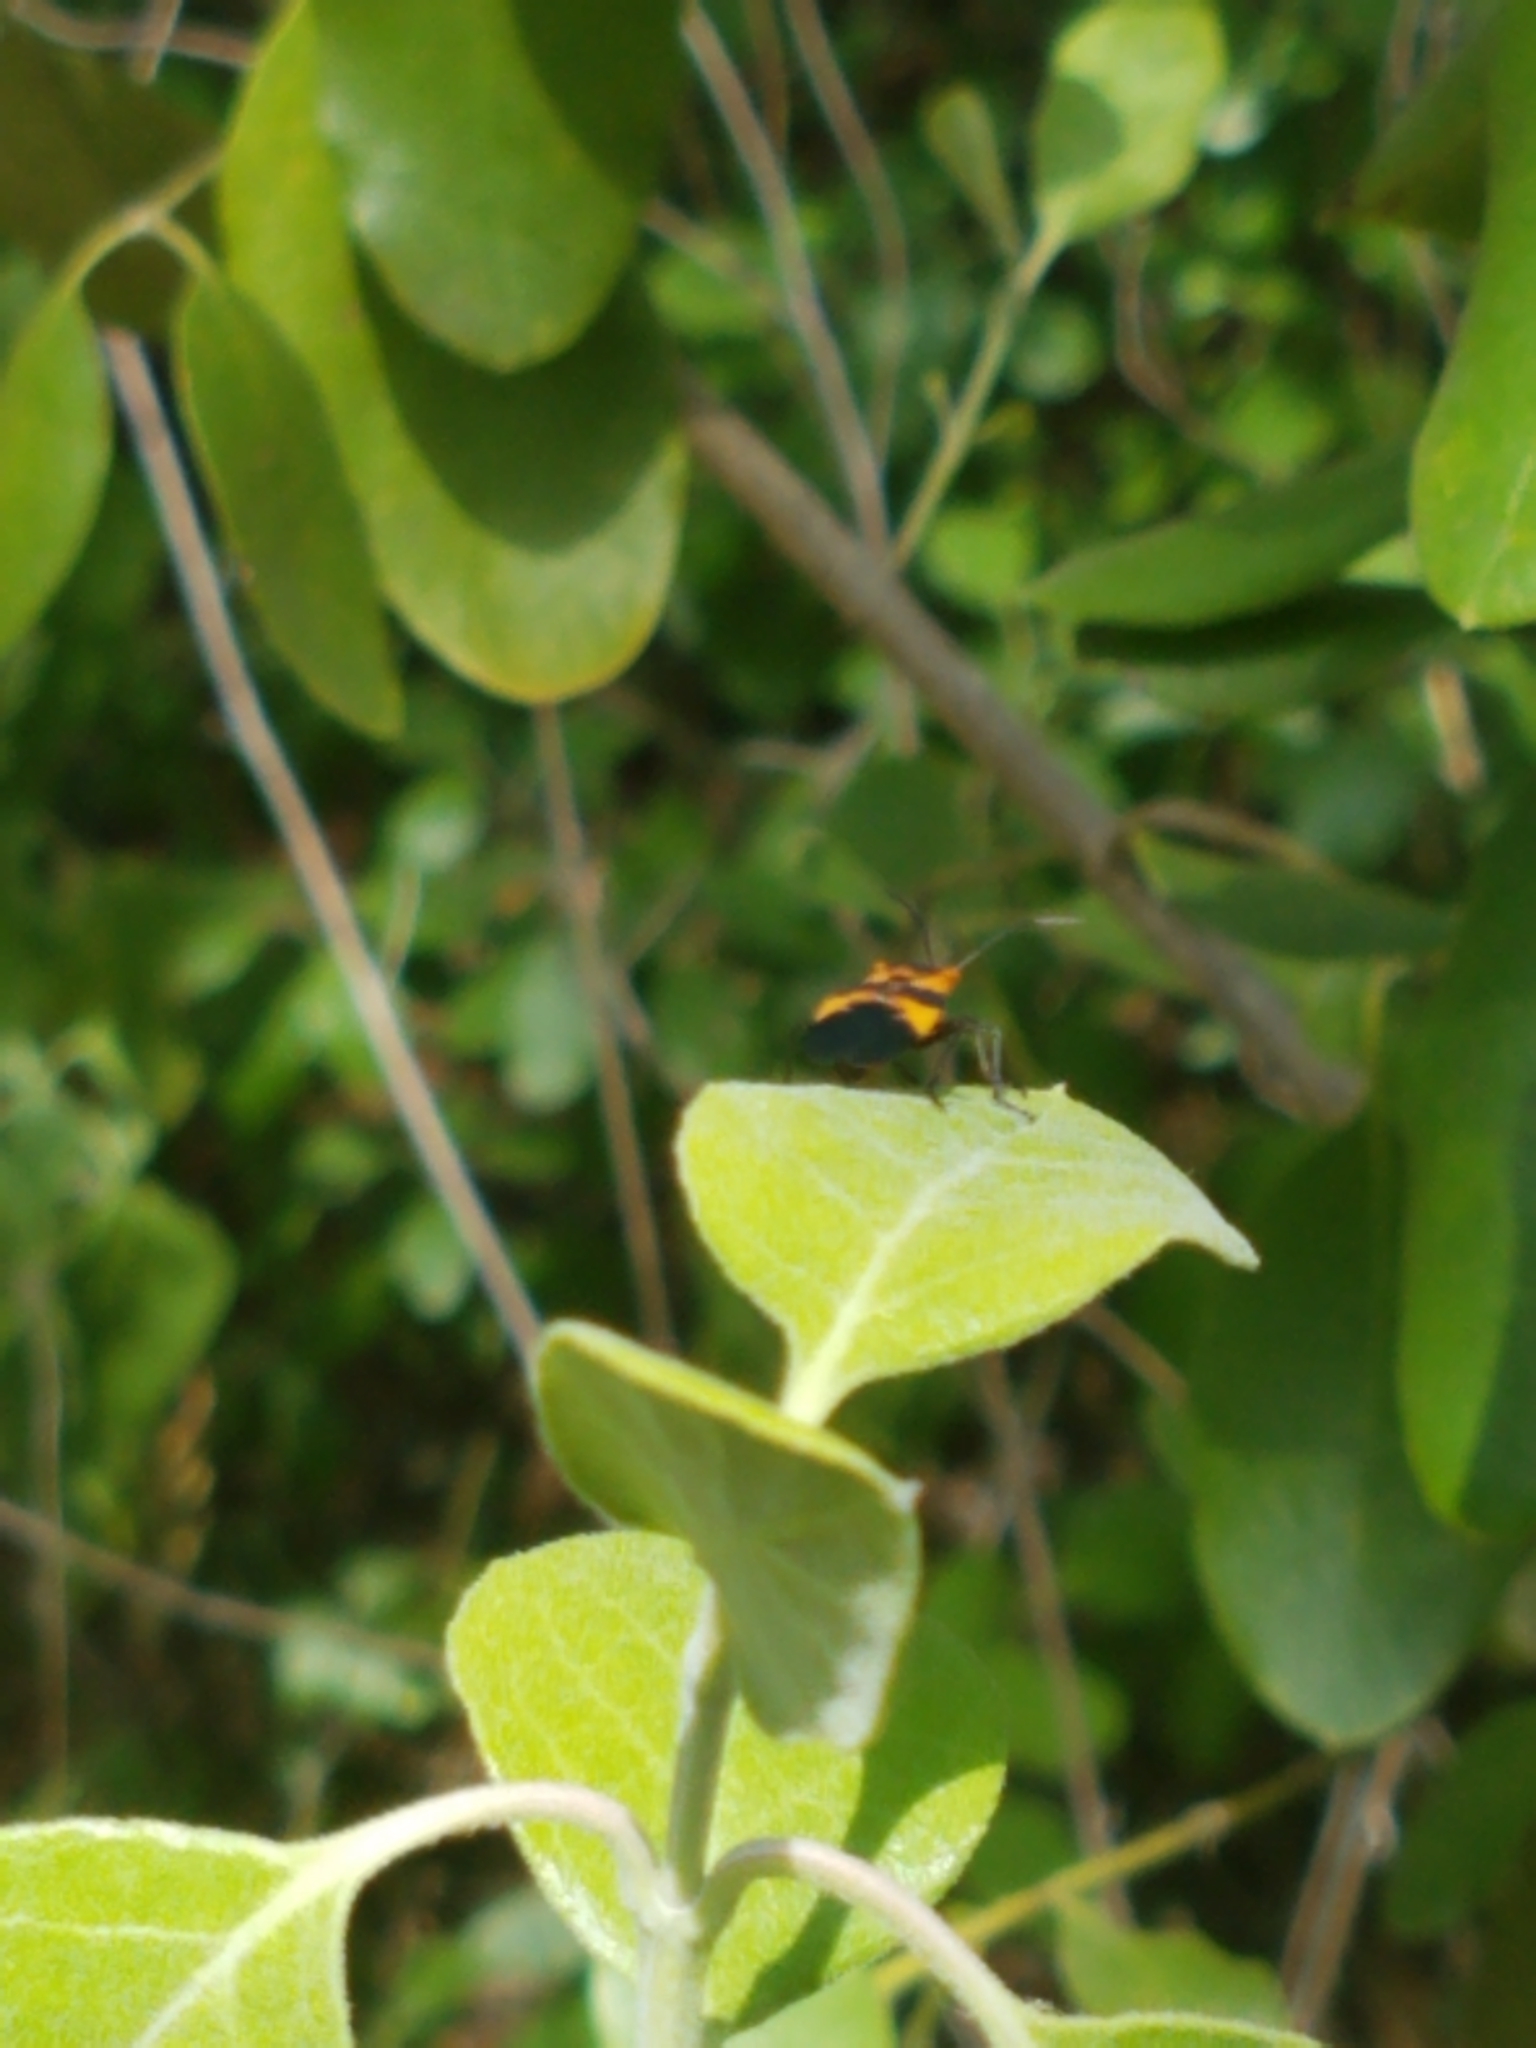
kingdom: Animalia
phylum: Arthropoda
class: Insecta
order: Hemiptera
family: Lygaeidae
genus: Oncopeltus
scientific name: Oncopeltus fasciatus
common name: Large milkweed bug
